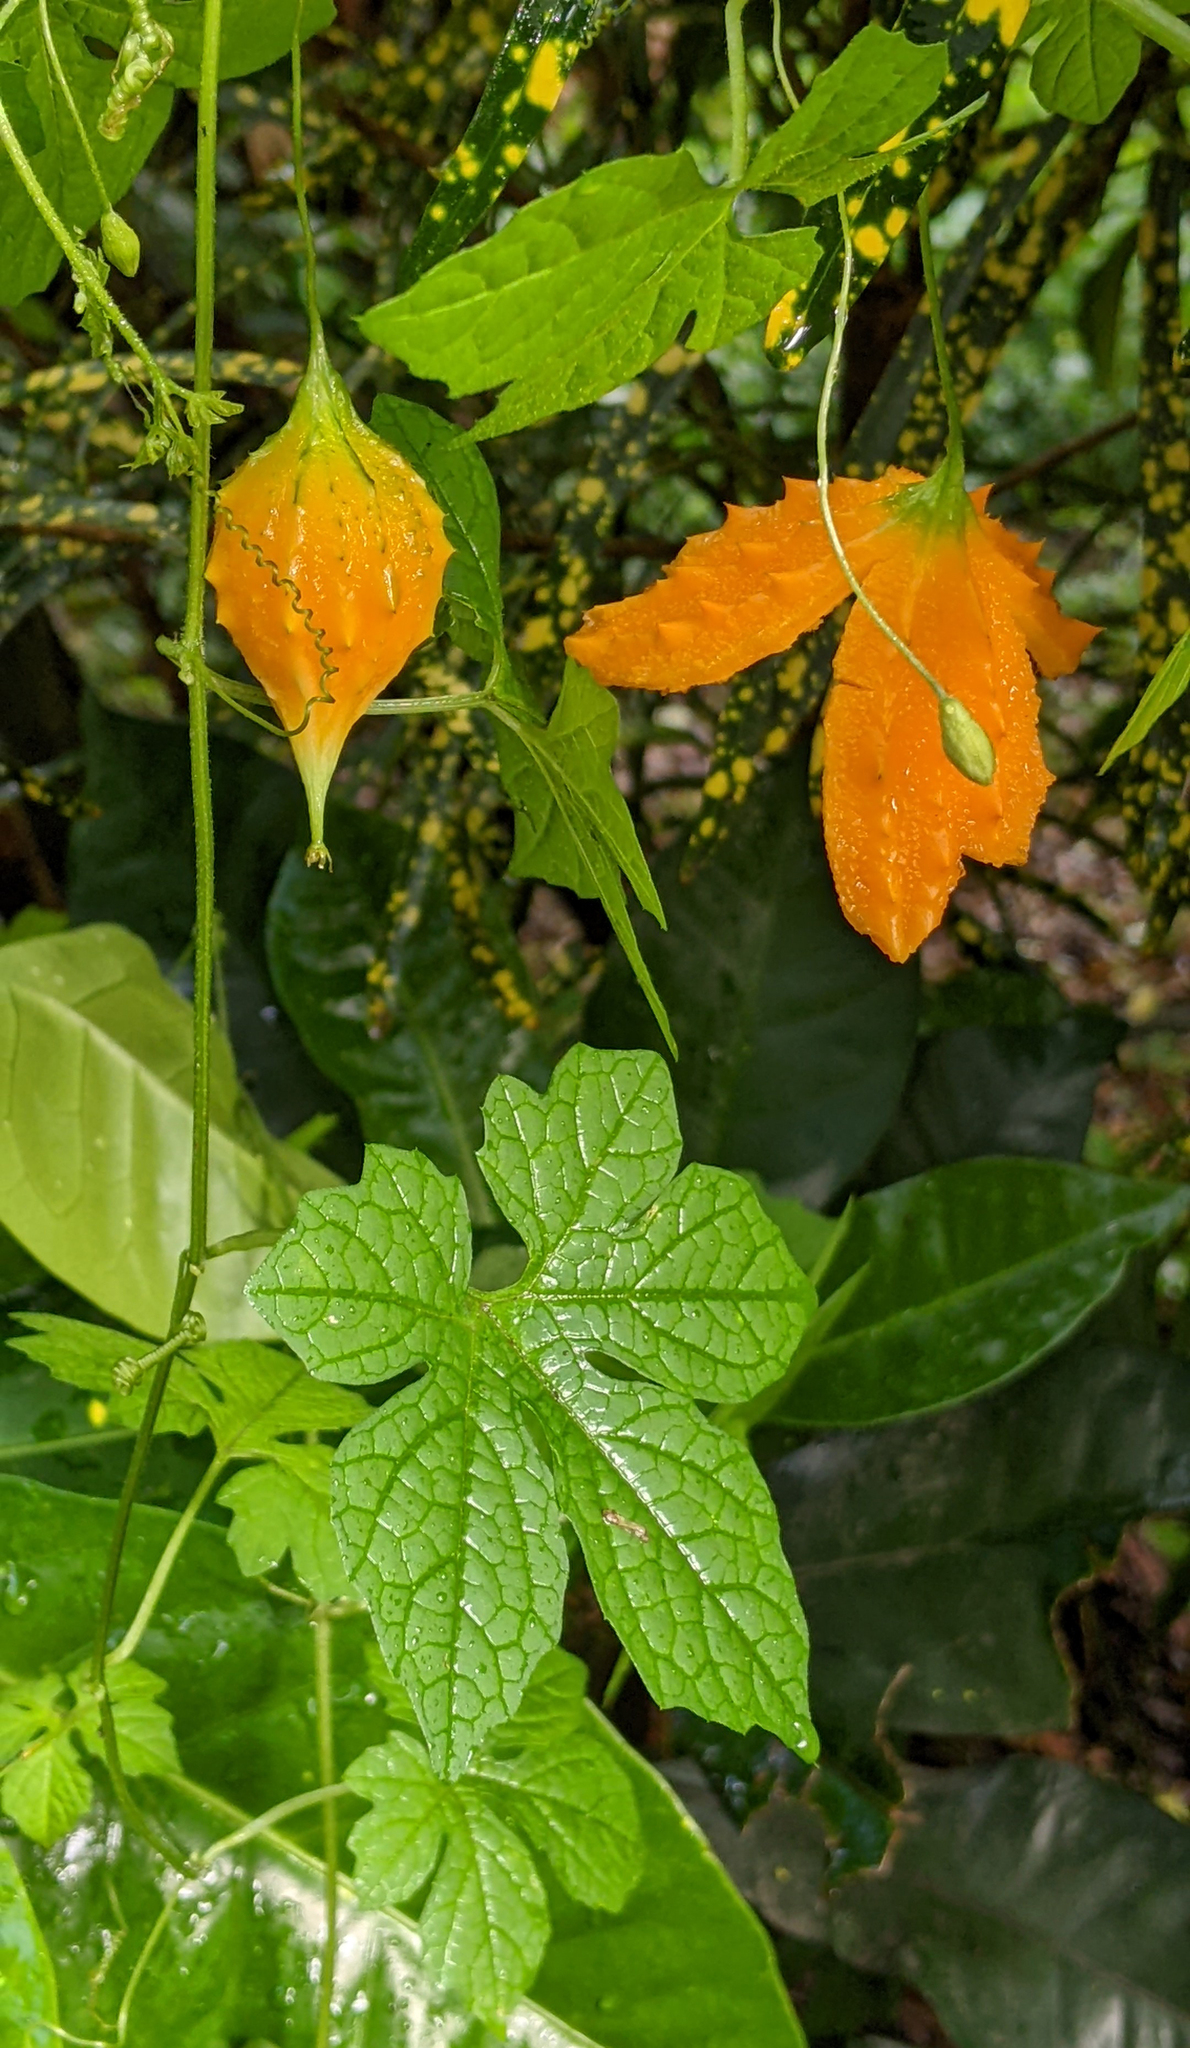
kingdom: Plantae
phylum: Tracheophyta
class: Magnoliopsida
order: Cucurbitales
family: Cucurbitaceae
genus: Momordica
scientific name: Momordica charantia
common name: Balsampear
